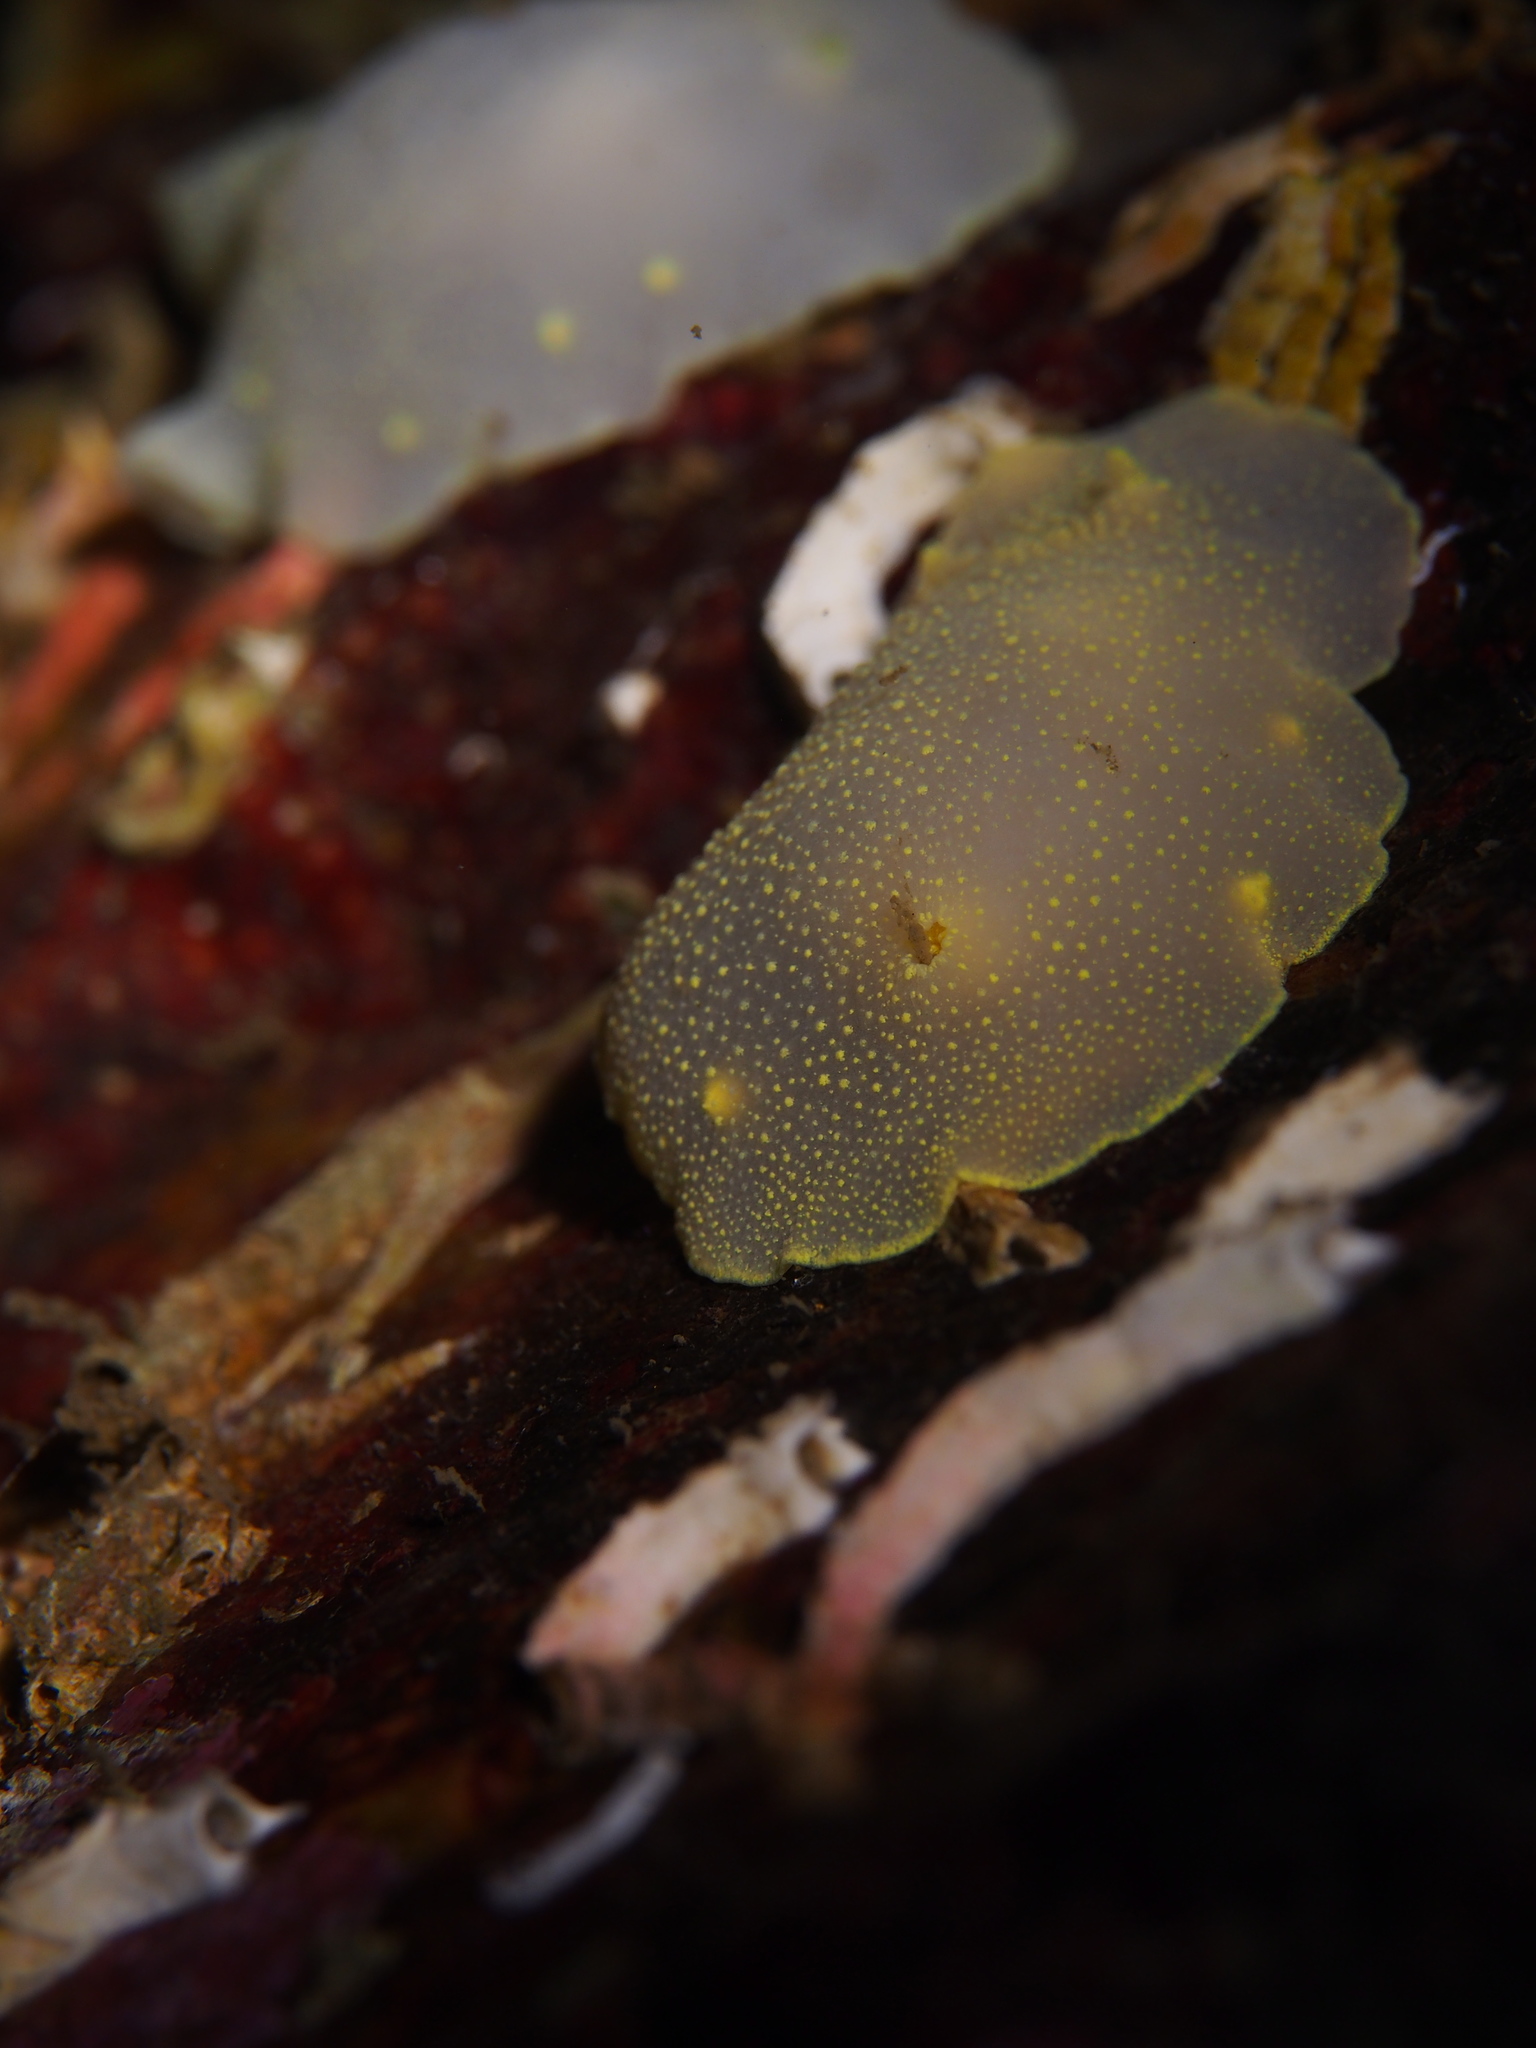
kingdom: Animalia
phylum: Mollusca
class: Gastropoda
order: Nudibranchia
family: Cadlinidae
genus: Cadlina
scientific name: Cadlina laevis
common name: White atlantic cadlina
